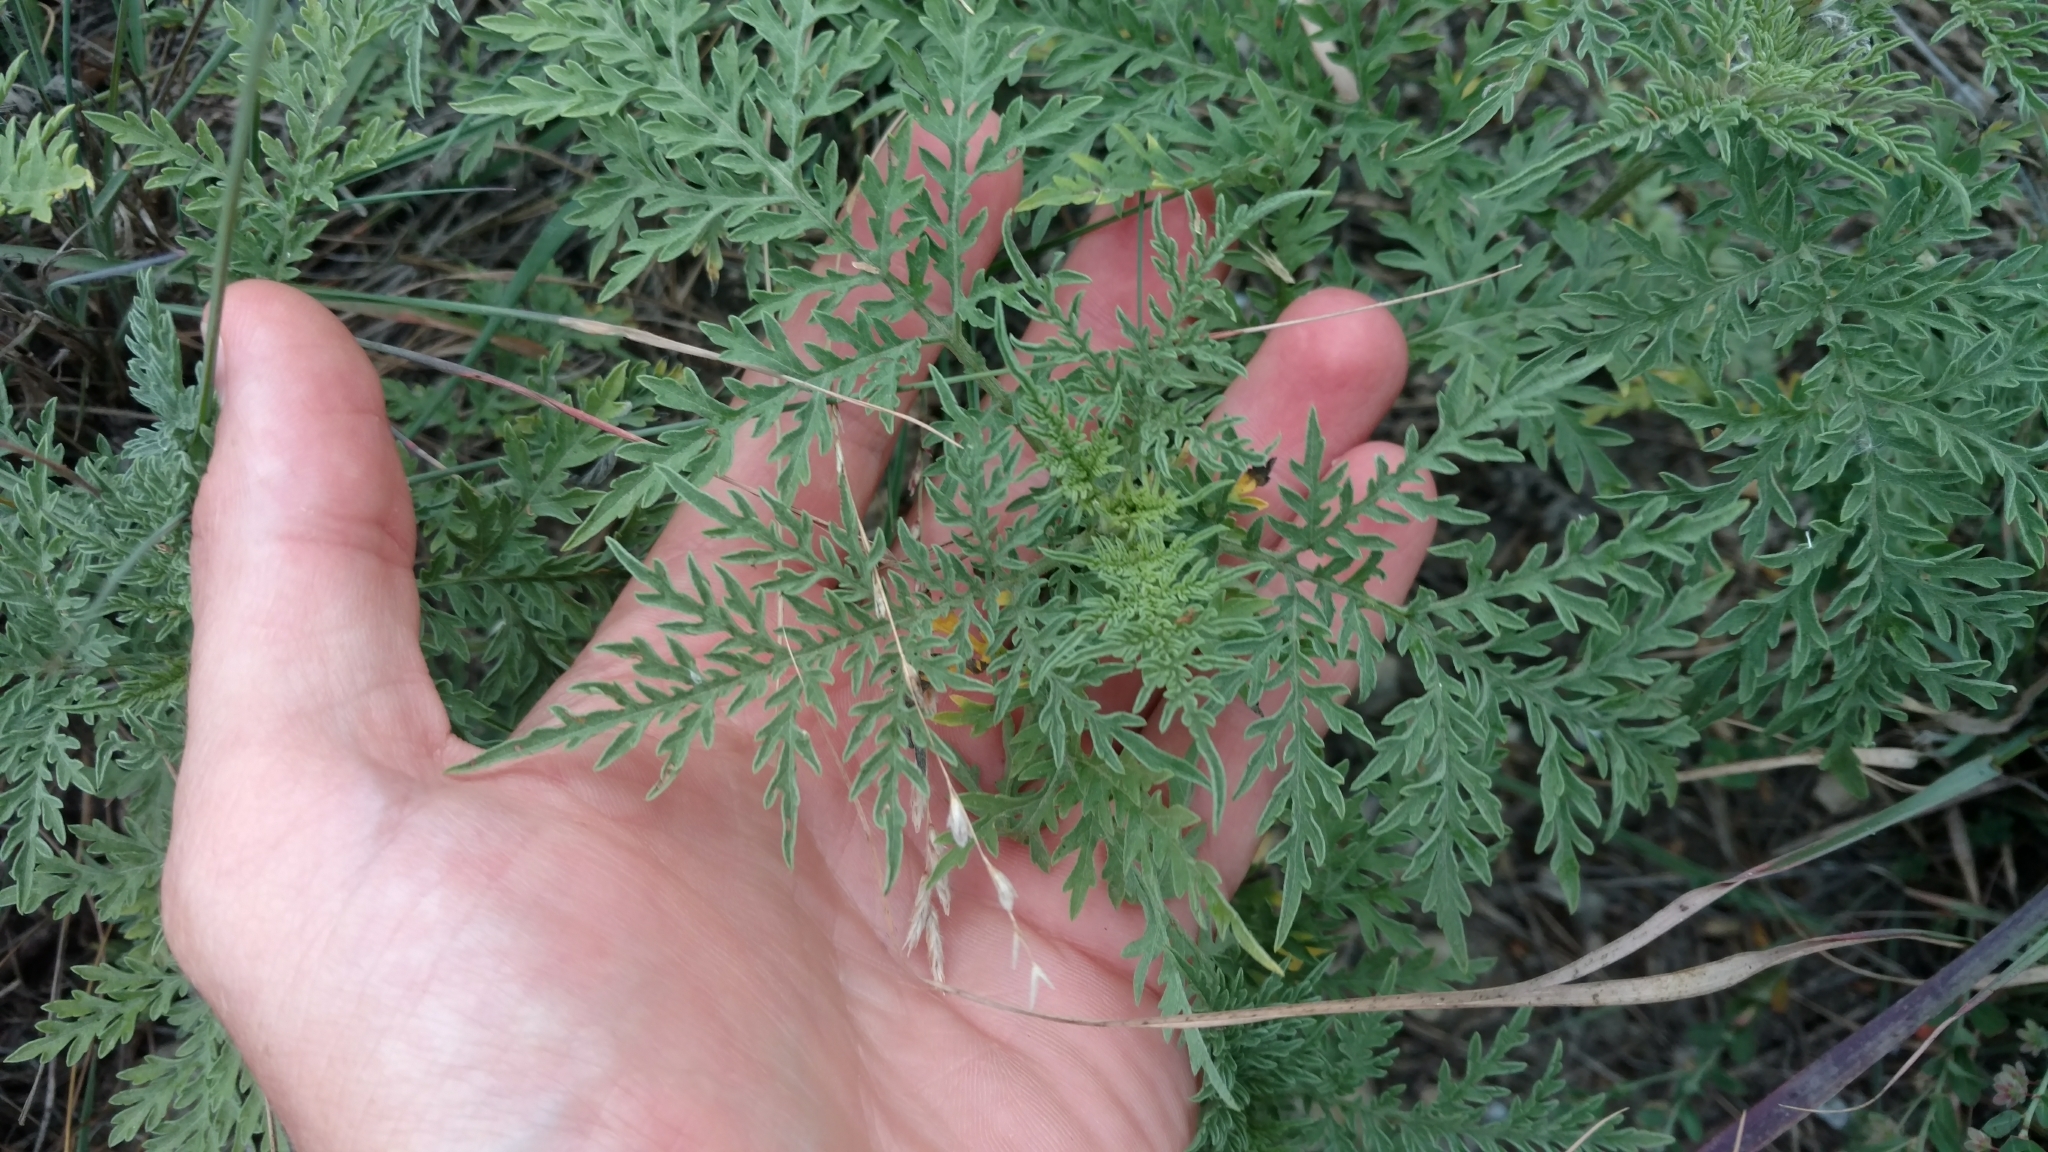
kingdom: Plantae
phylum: Tracheophyta
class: Magnoliopsida
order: Asterales
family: Asteraceae
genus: Ambrosia
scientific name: Ambrosia artemisiifolia
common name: Annual ragweed
